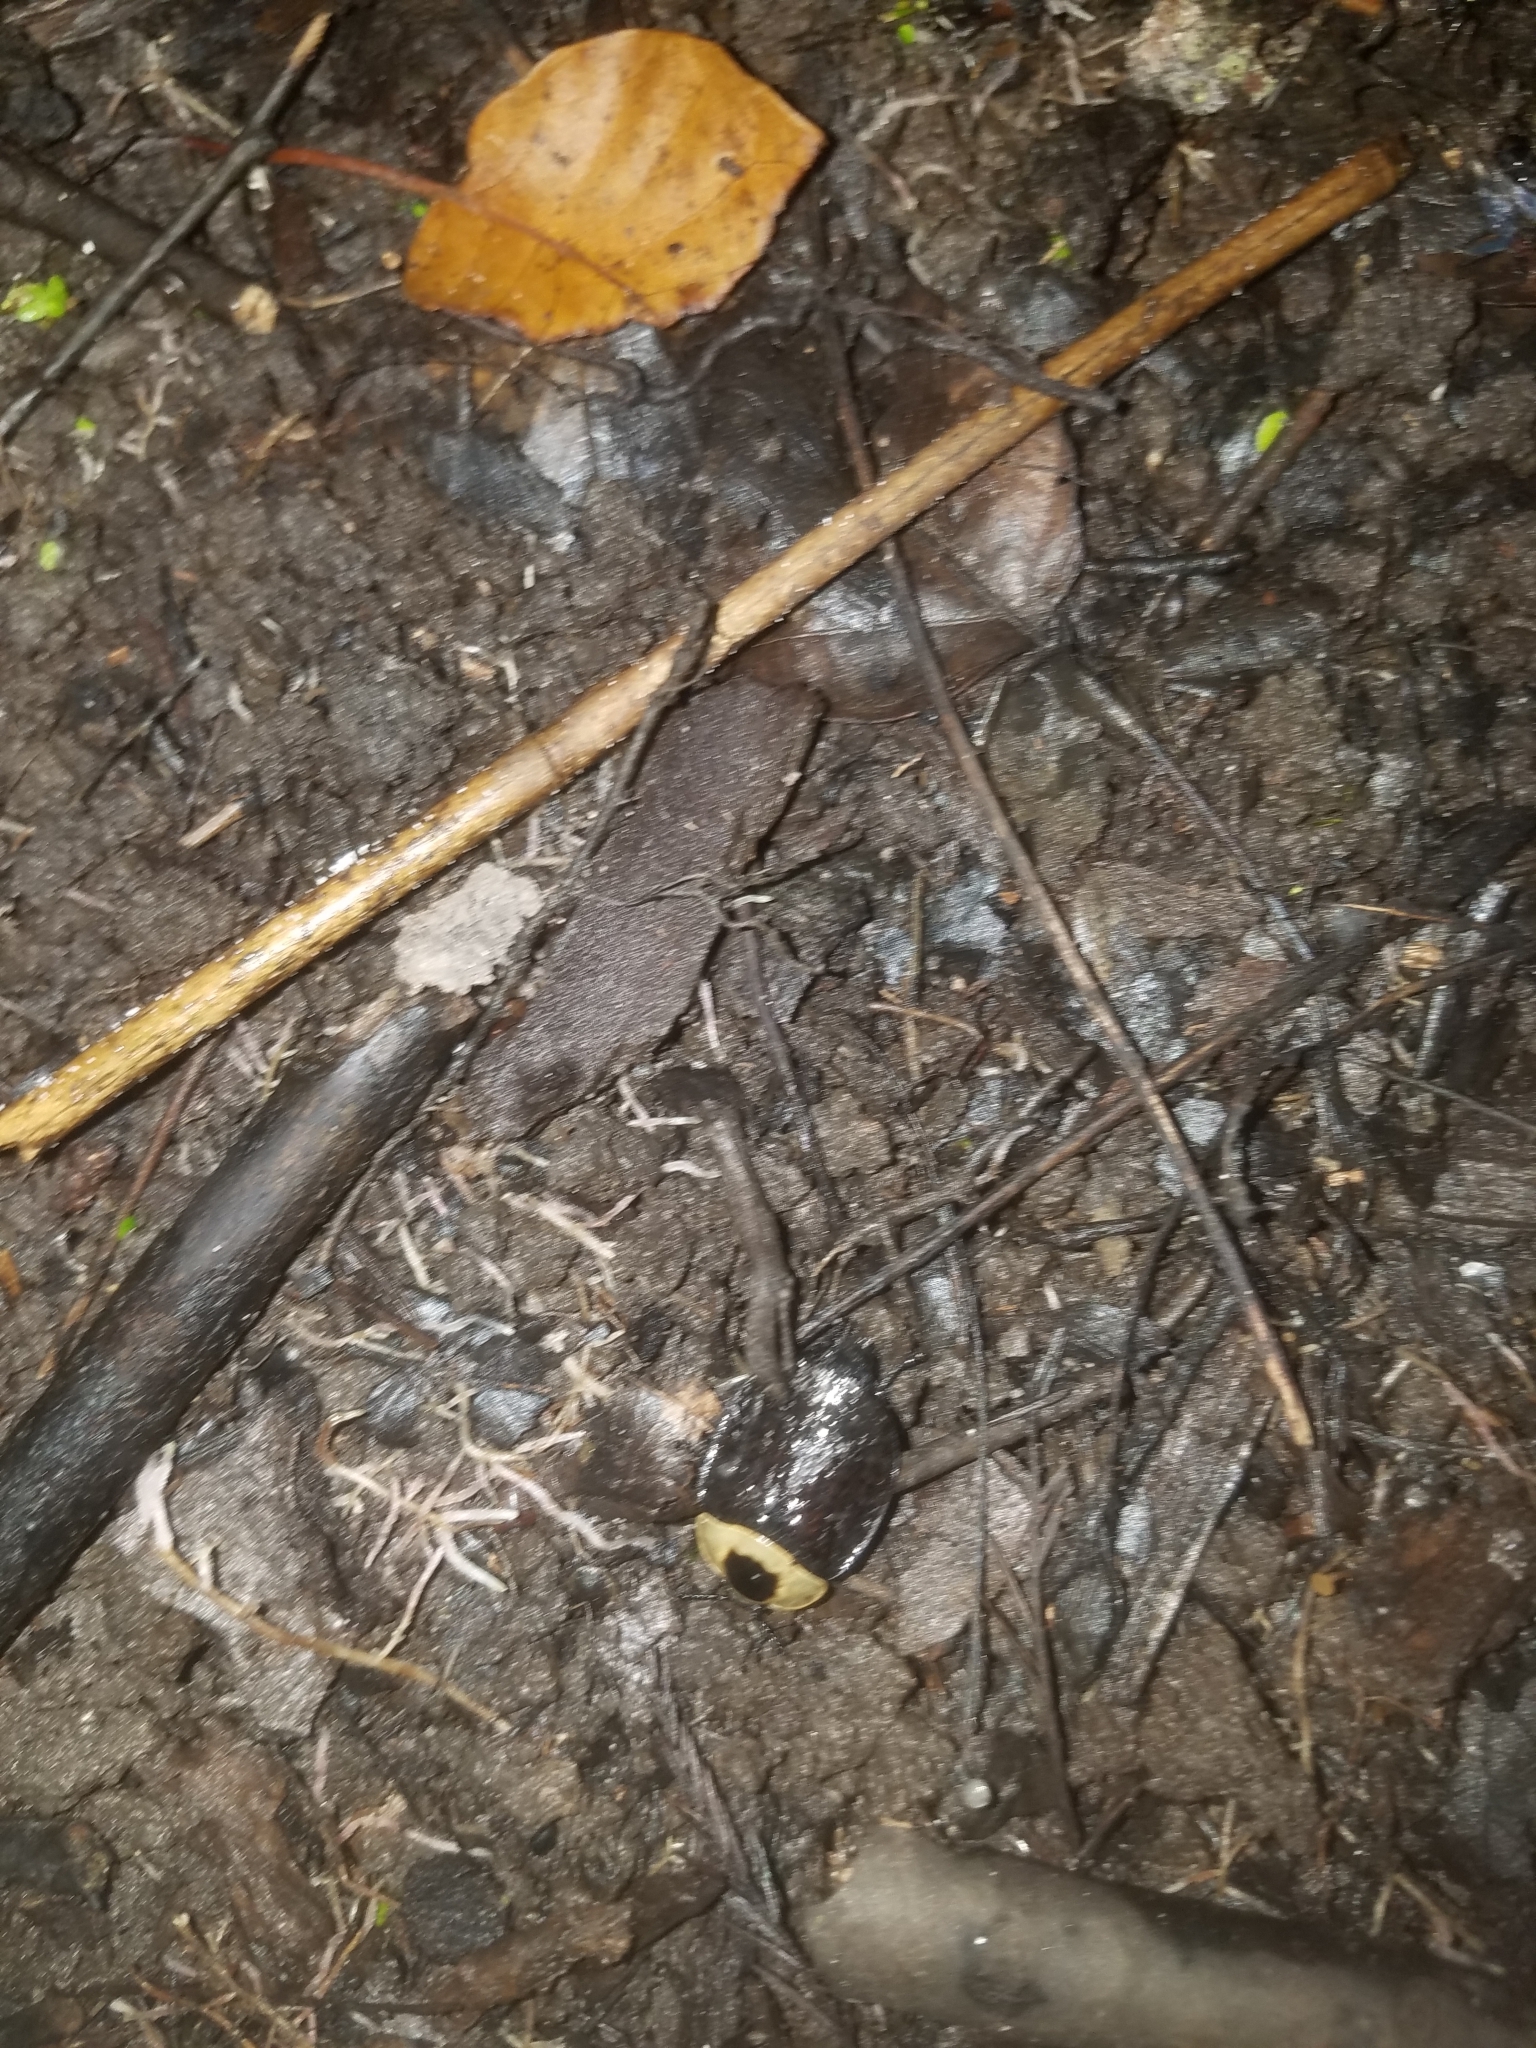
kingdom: Animalia
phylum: Arthropoda
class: Insecta
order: Coleoptera
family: Staphylinidae
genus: Necrophila
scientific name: Necrophila americana
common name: American carrion beetle
